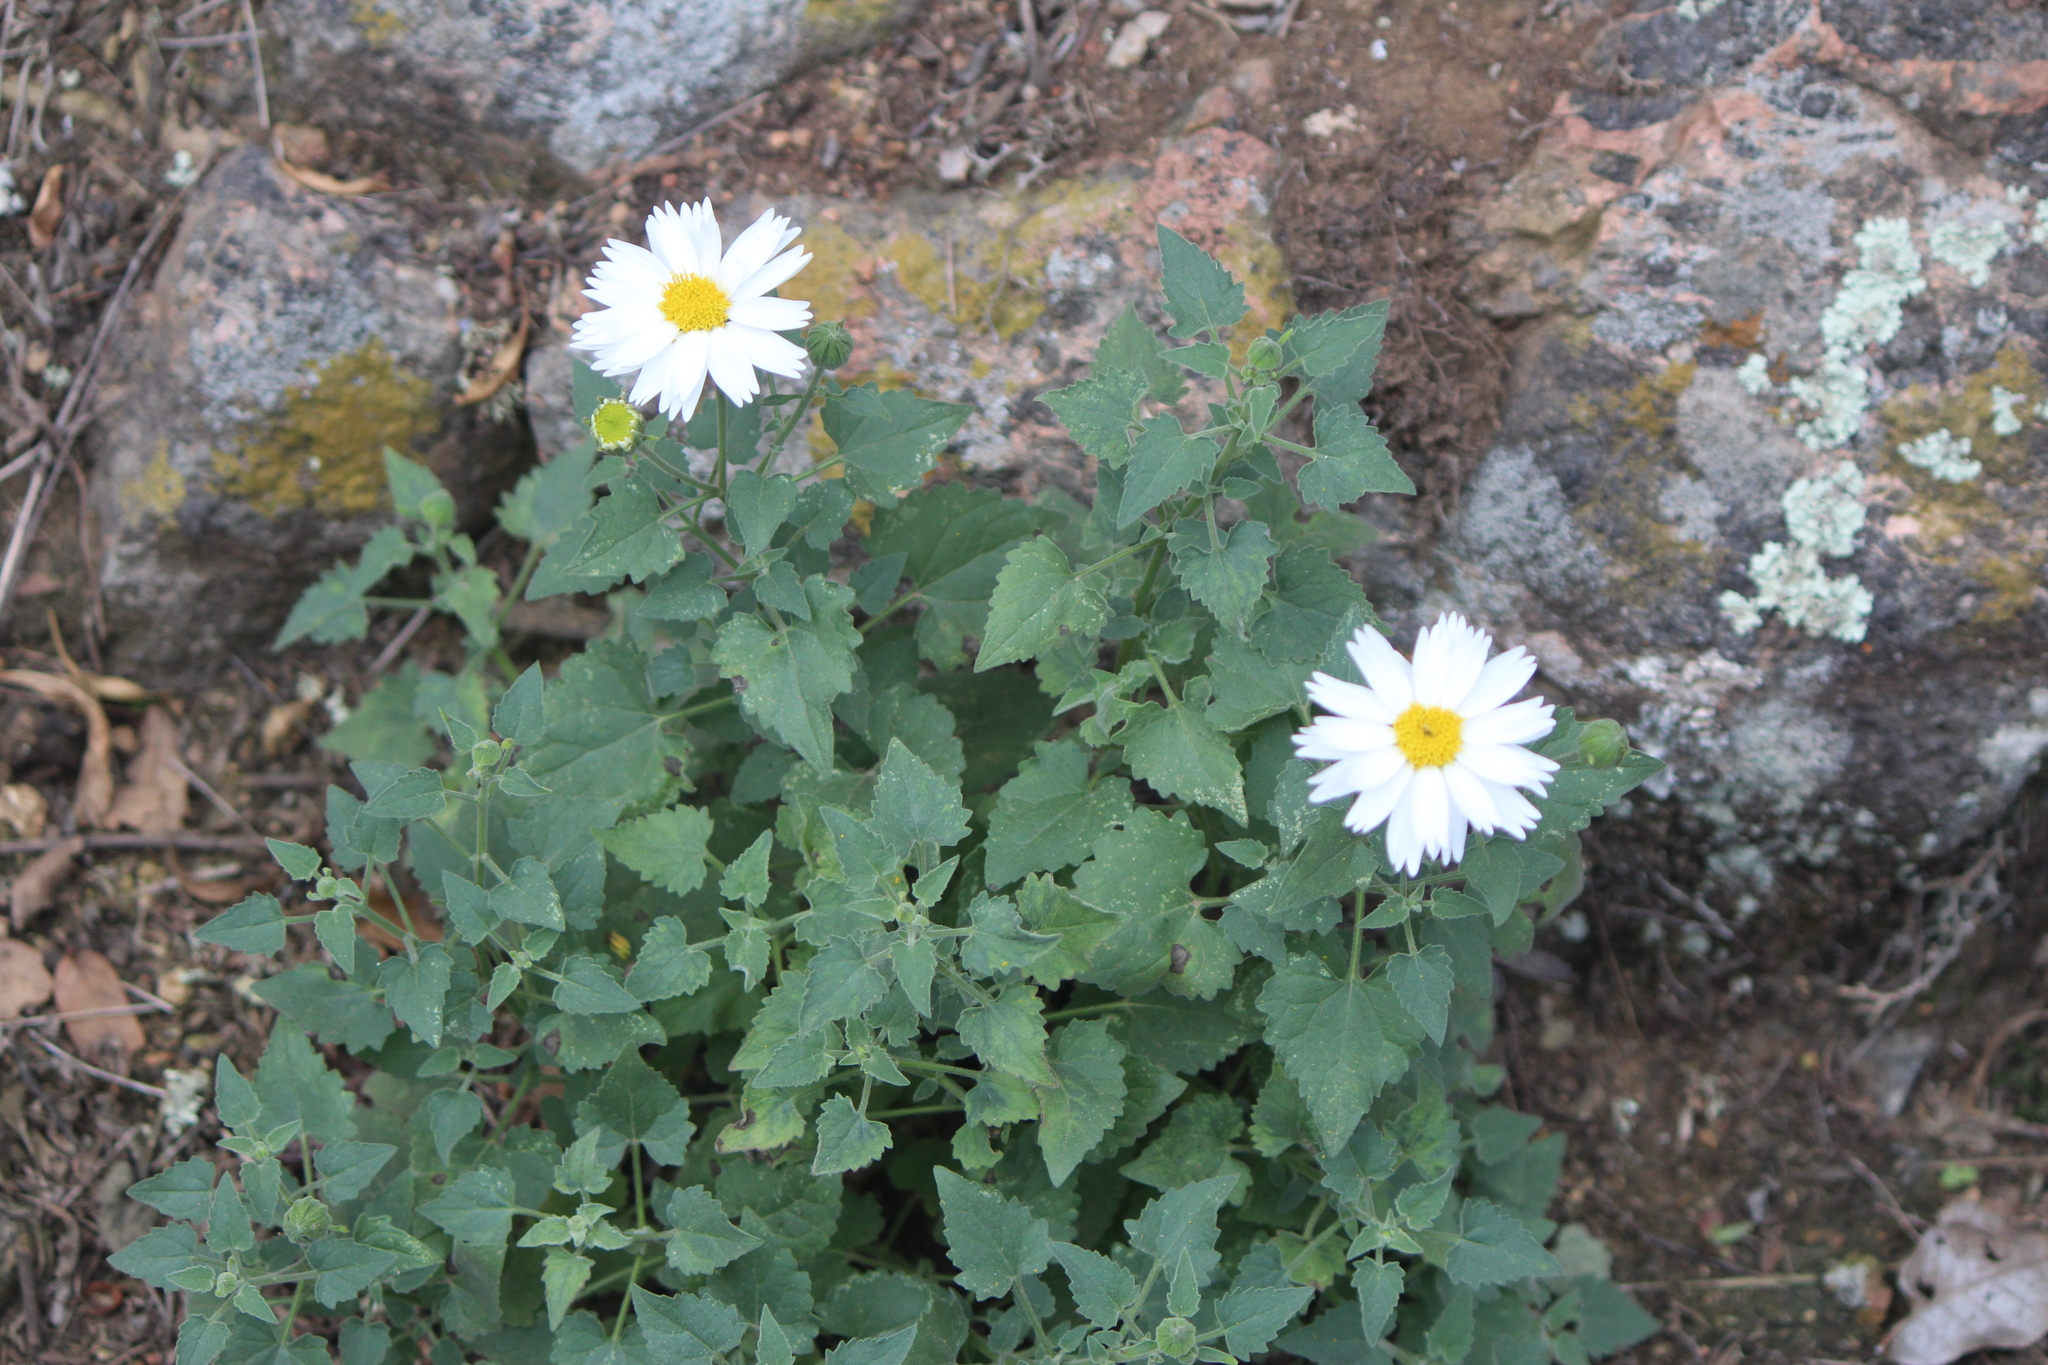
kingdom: Plantae
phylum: Tracheophyta
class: Magnoliopsida
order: Asterales
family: Asteraceae
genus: Eutetras
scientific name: Eutetras pringlei
